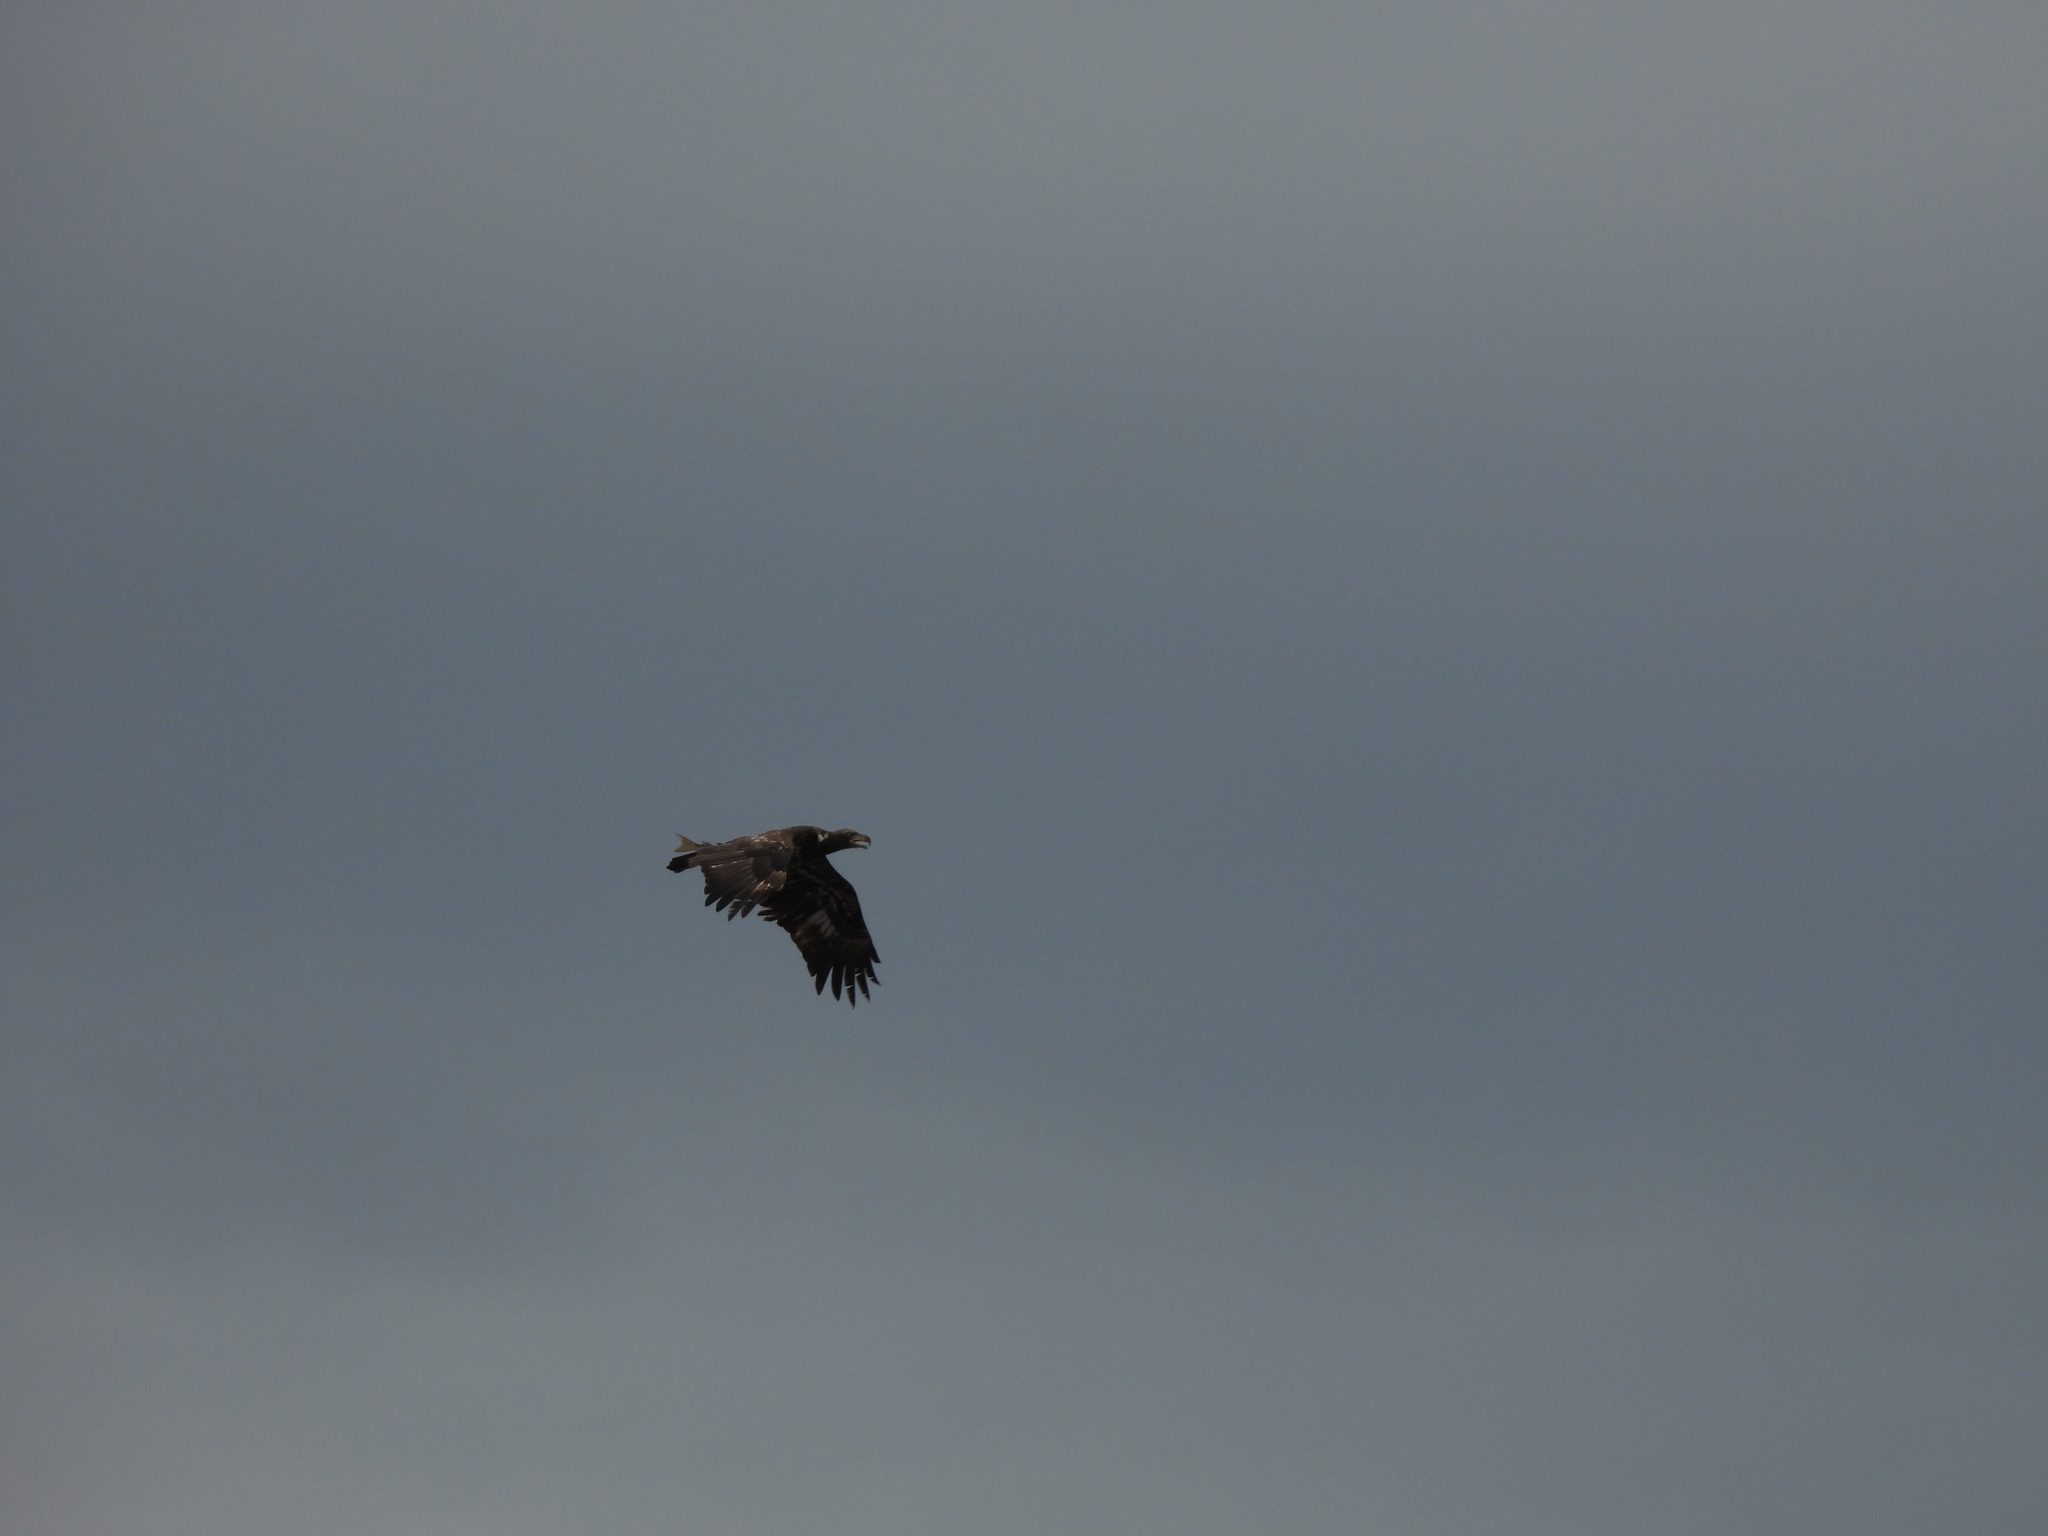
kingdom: Animalia
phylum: Chordata
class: Aves
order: Accipitriformes
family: Accipitridae
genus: Haliaeetus
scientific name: Haliaeetus leucocephalus
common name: Bald eagle
